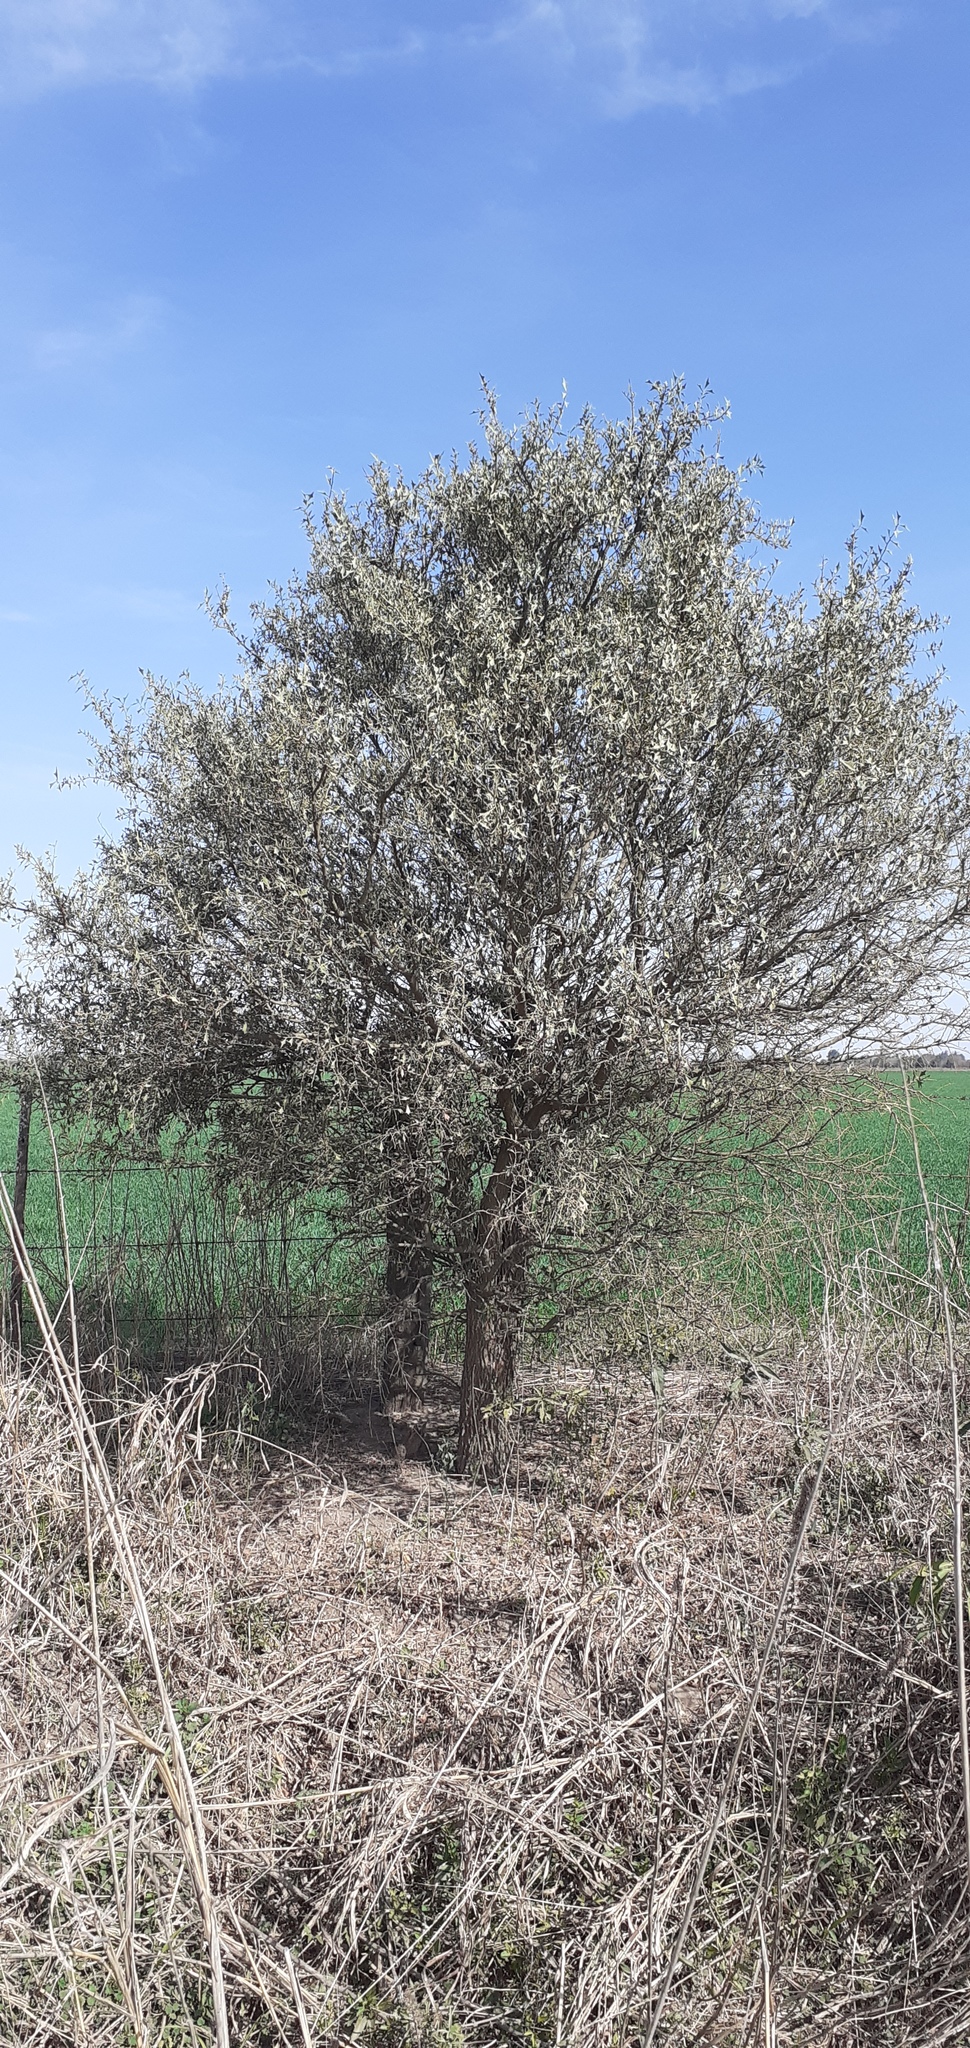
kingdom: Plantae
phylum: Tracheophyta
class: Magnoliopsida
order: Santalales
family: Cervantesiaceae
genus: Jodina
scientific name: Jodina rhombifolia
